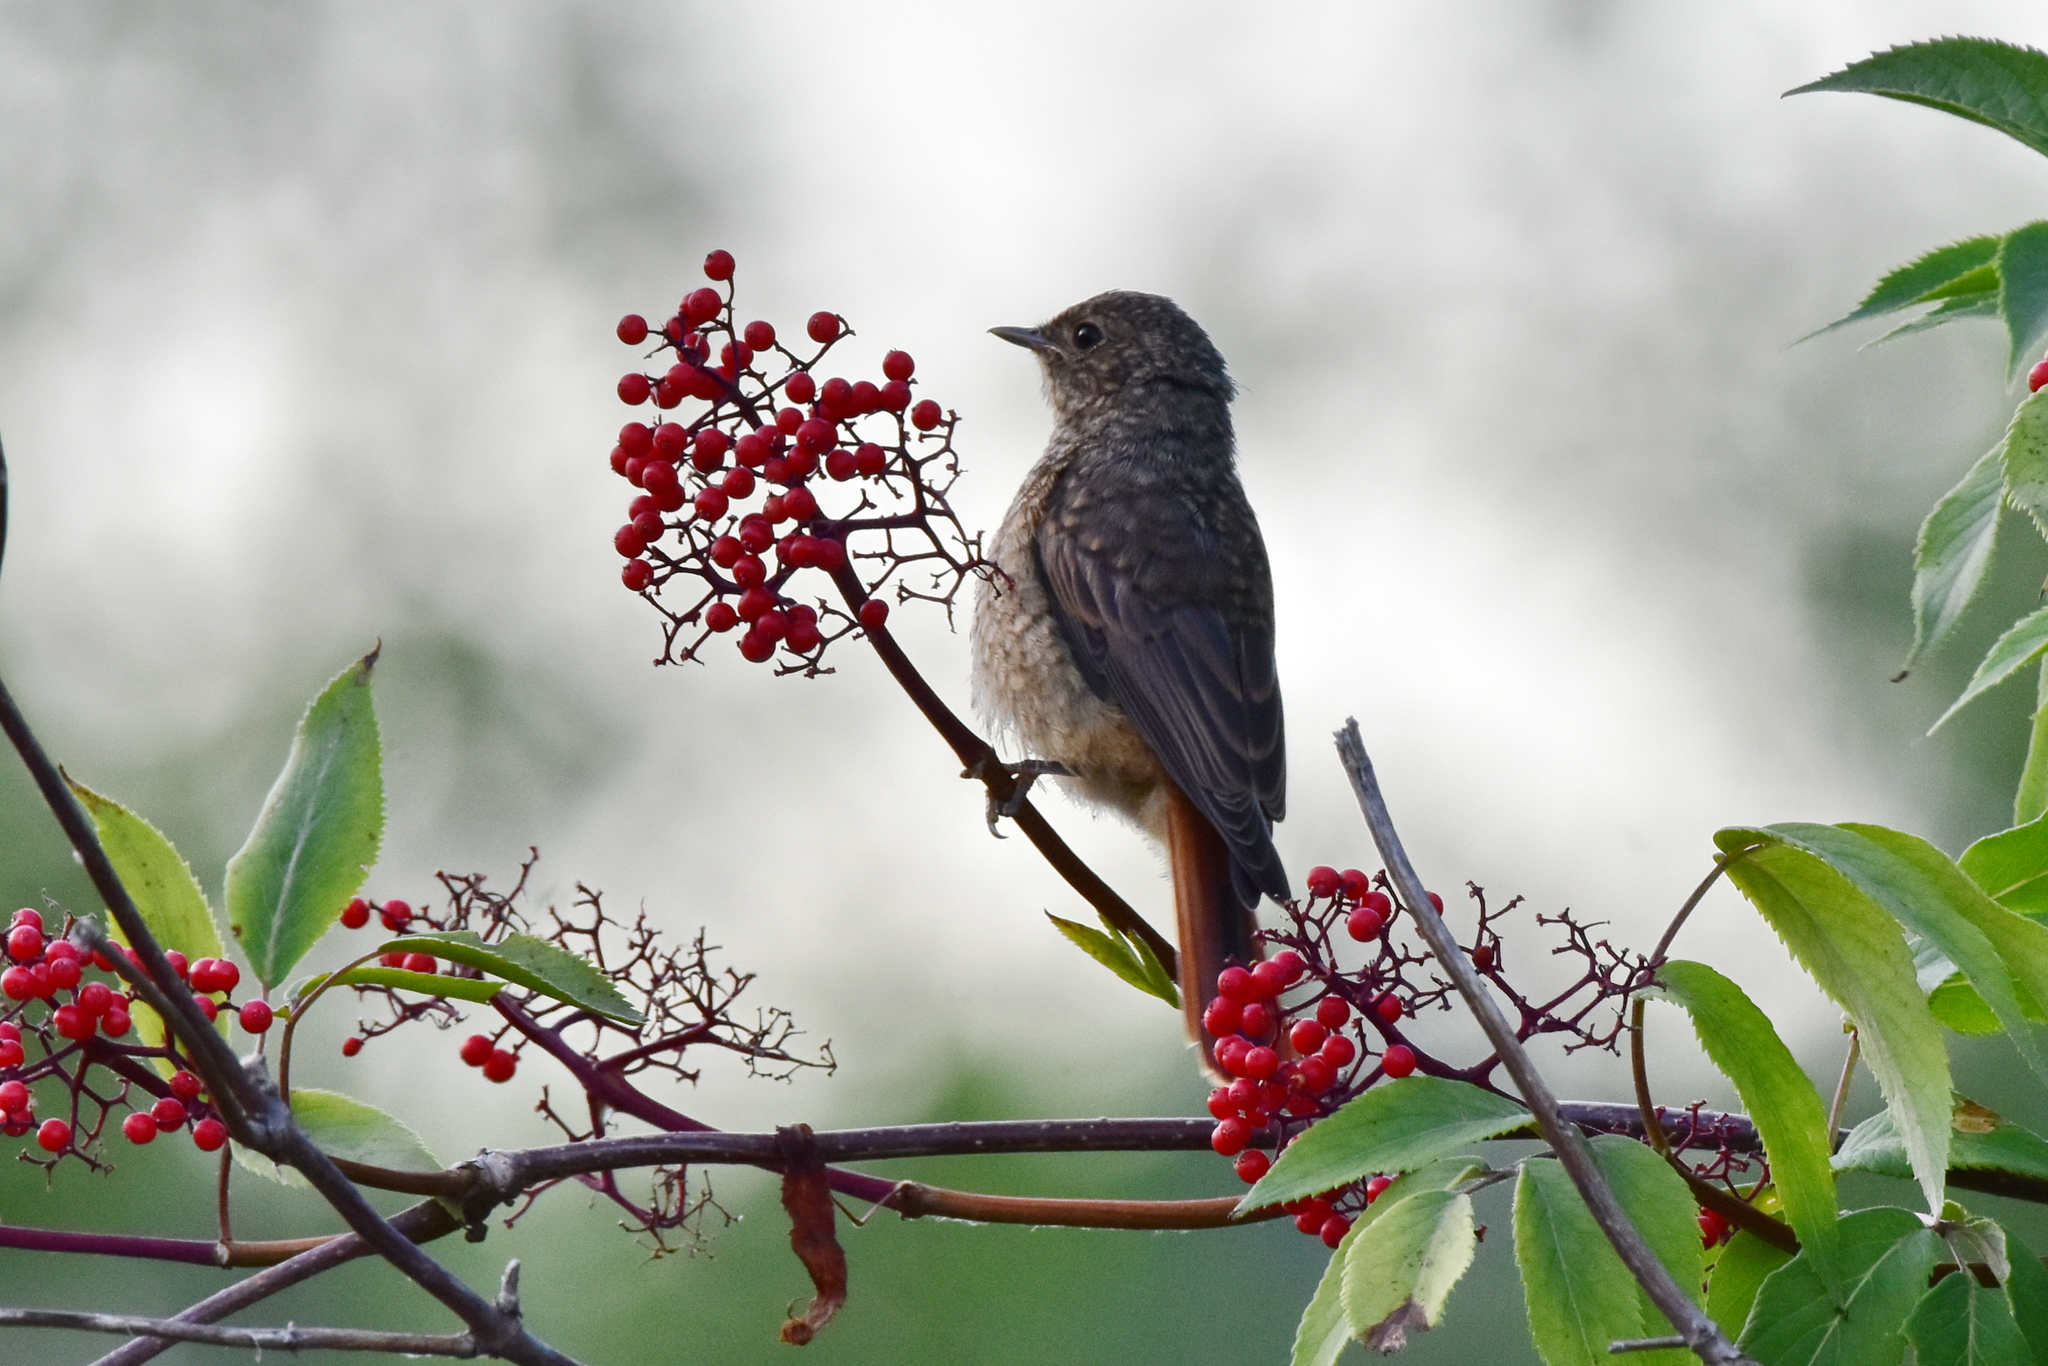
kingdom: Animalia
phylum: Chordata
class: Aves
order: Passeriformes
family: Muscicapidae
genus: Phoenicurus
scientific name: Phoenicurus phoenicurus
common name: Common redstart
